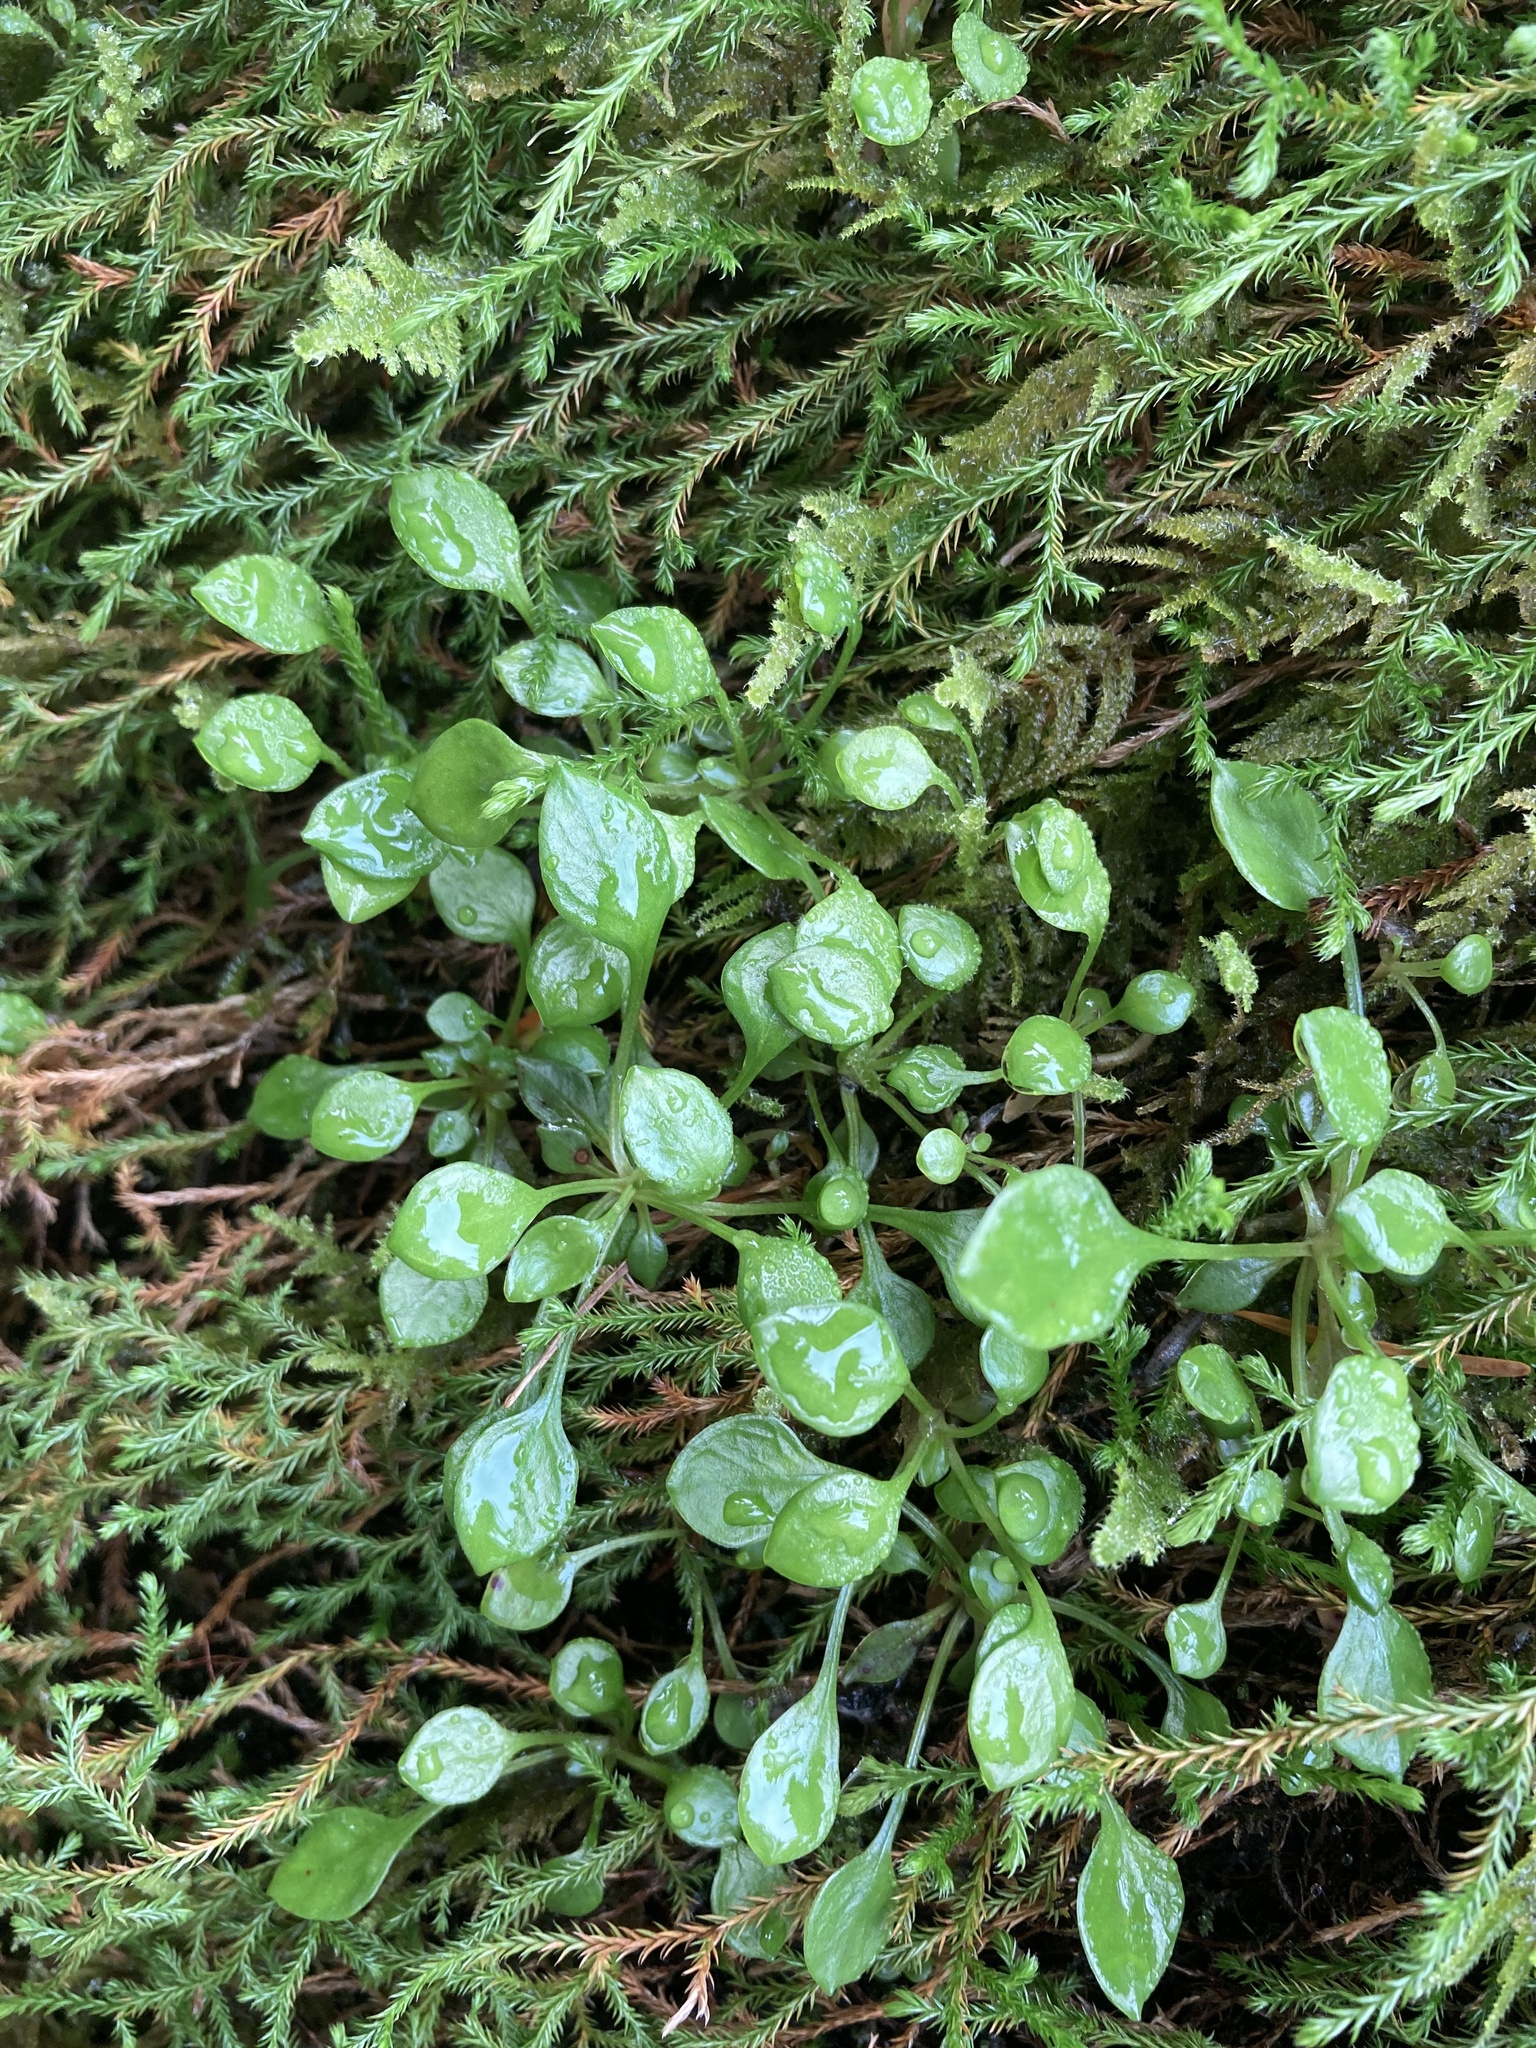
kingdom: Plantae
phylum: Tracheophyta
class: Magnoliopsida
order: Caryophyllales
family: Montiaceae
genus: Montia
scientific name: Montia parvifolia
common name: Small-leaved blinks
